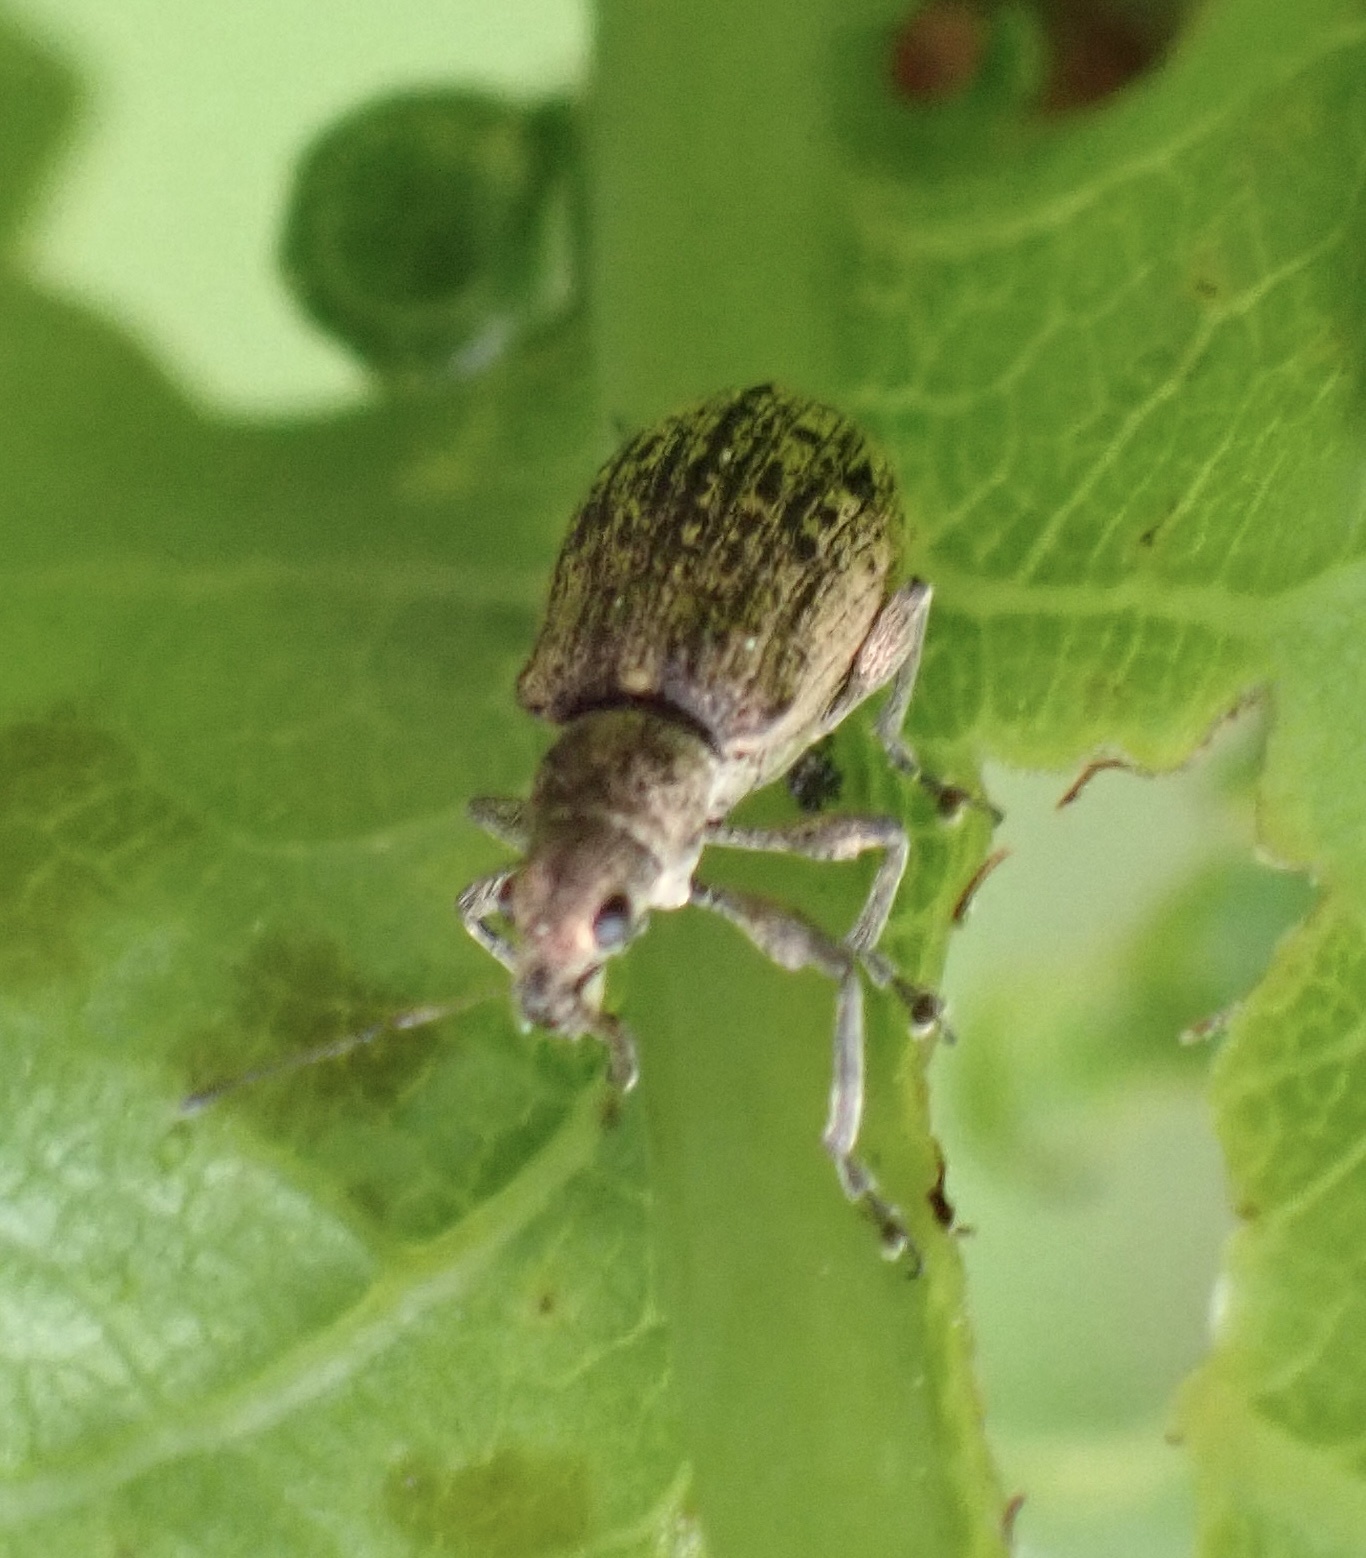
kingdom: Animalia
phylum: Arthropoda
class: Insecta
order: Coleoptera
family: Curculionidae
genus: Polydrusus
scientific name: Polydrusus cervinus
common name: Weevil
